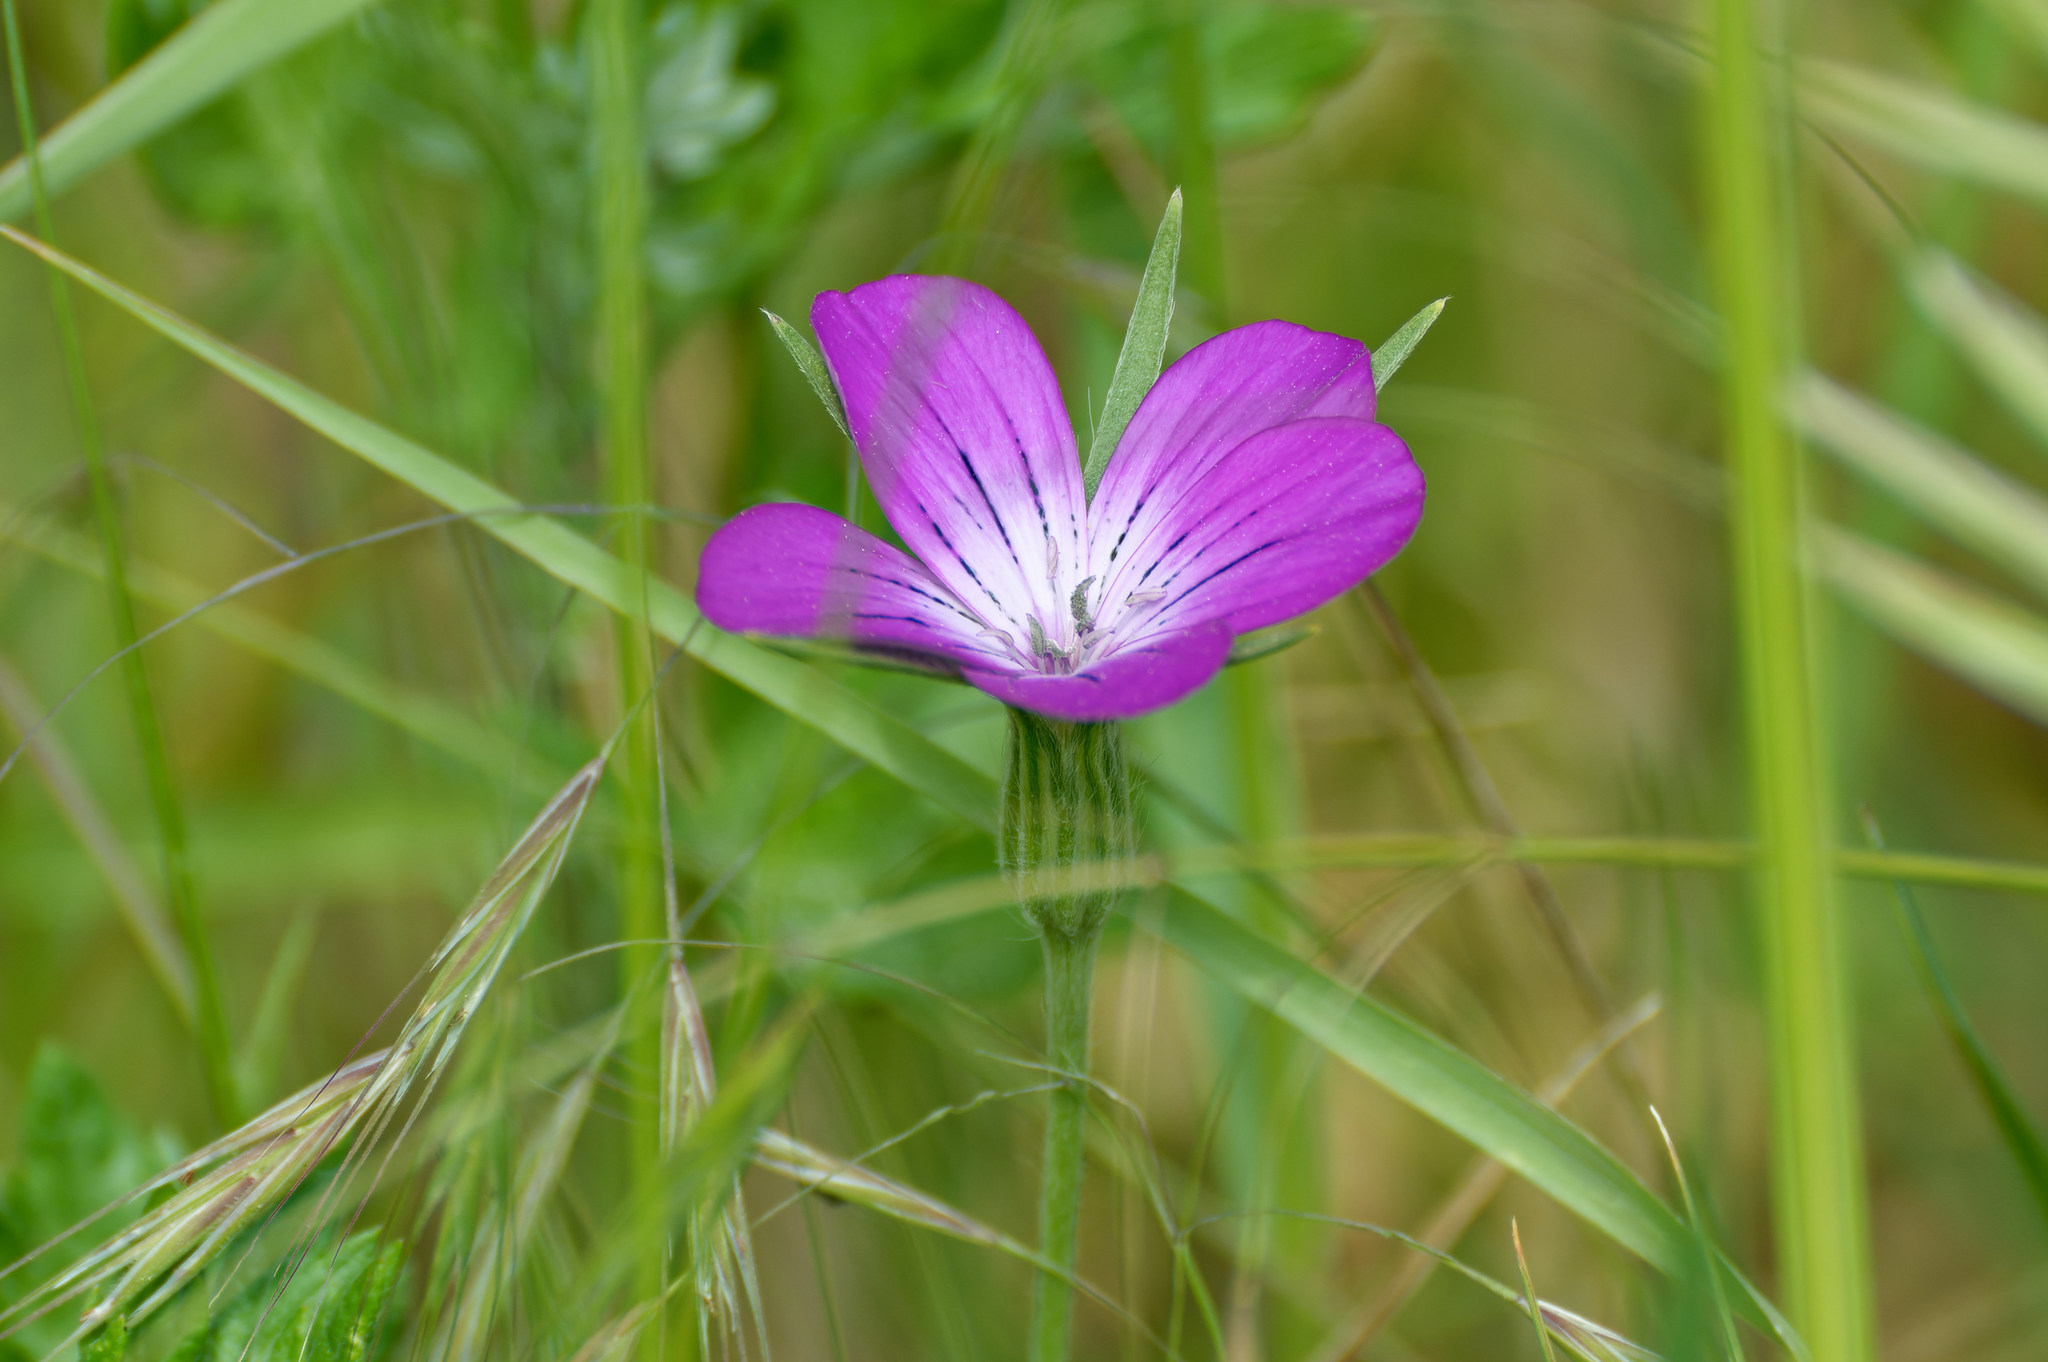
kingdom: Plantae
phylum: Tracheophyta
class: Magnoliopsida
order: Caryophyllales
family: Caryophyllaceae
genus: Agrostemma
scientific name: Agrostemma githago
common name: Common corncockle
